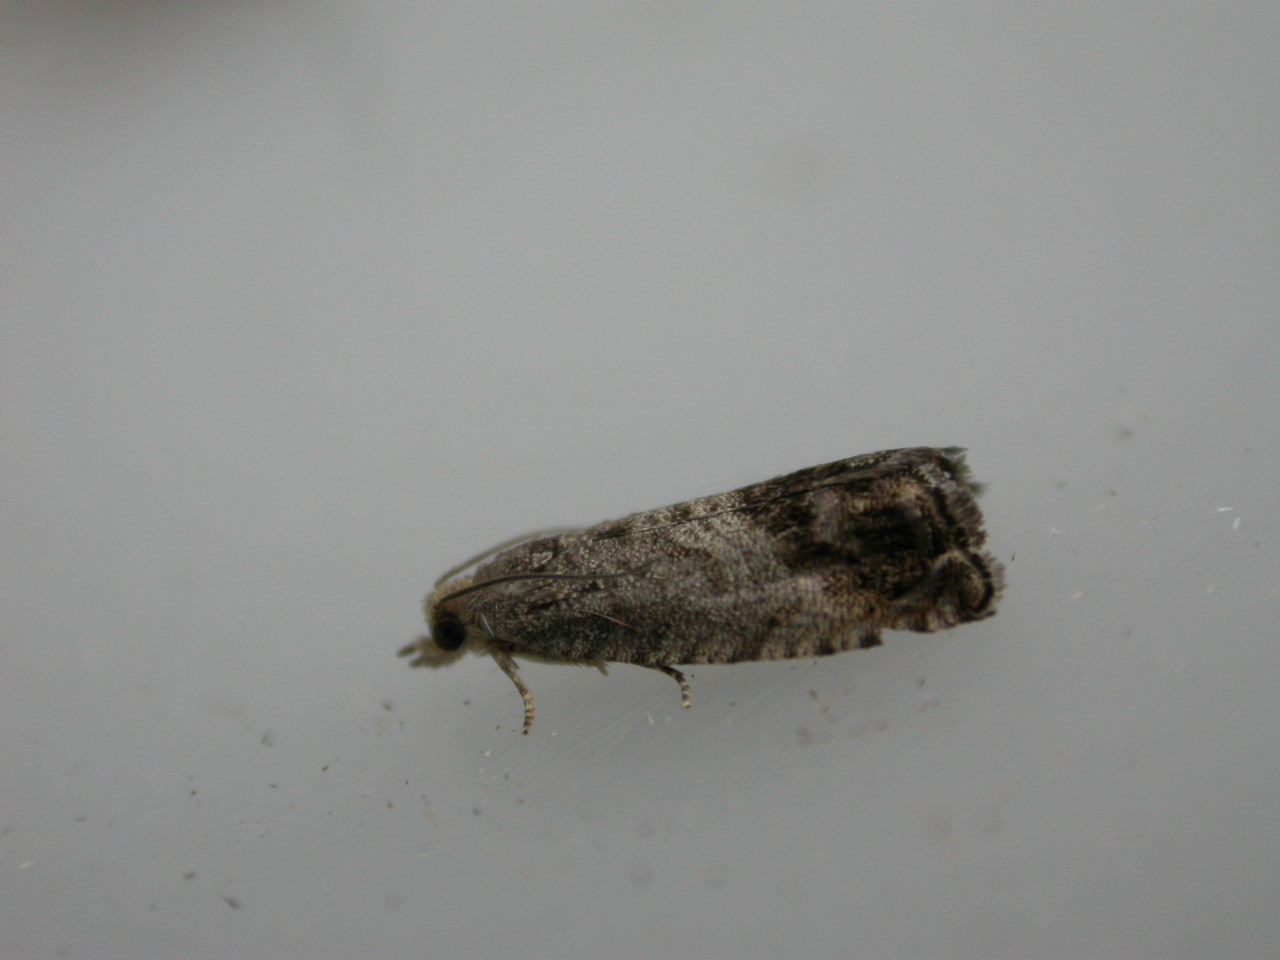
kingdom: Animalia
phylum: Arthropoda
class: Insecta
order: Lepidoptera
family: Tortricidae
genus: Cydia
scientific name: Cydia splendana
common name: De: kastanienwickler, eichenwickler es: oruga de la castaña fr: carpocapse des châtaignes it: cidia o tortrice tardiva delle castagne pt: bichado das castanhas gb: acorn moth, chestnut fruit tortrix
